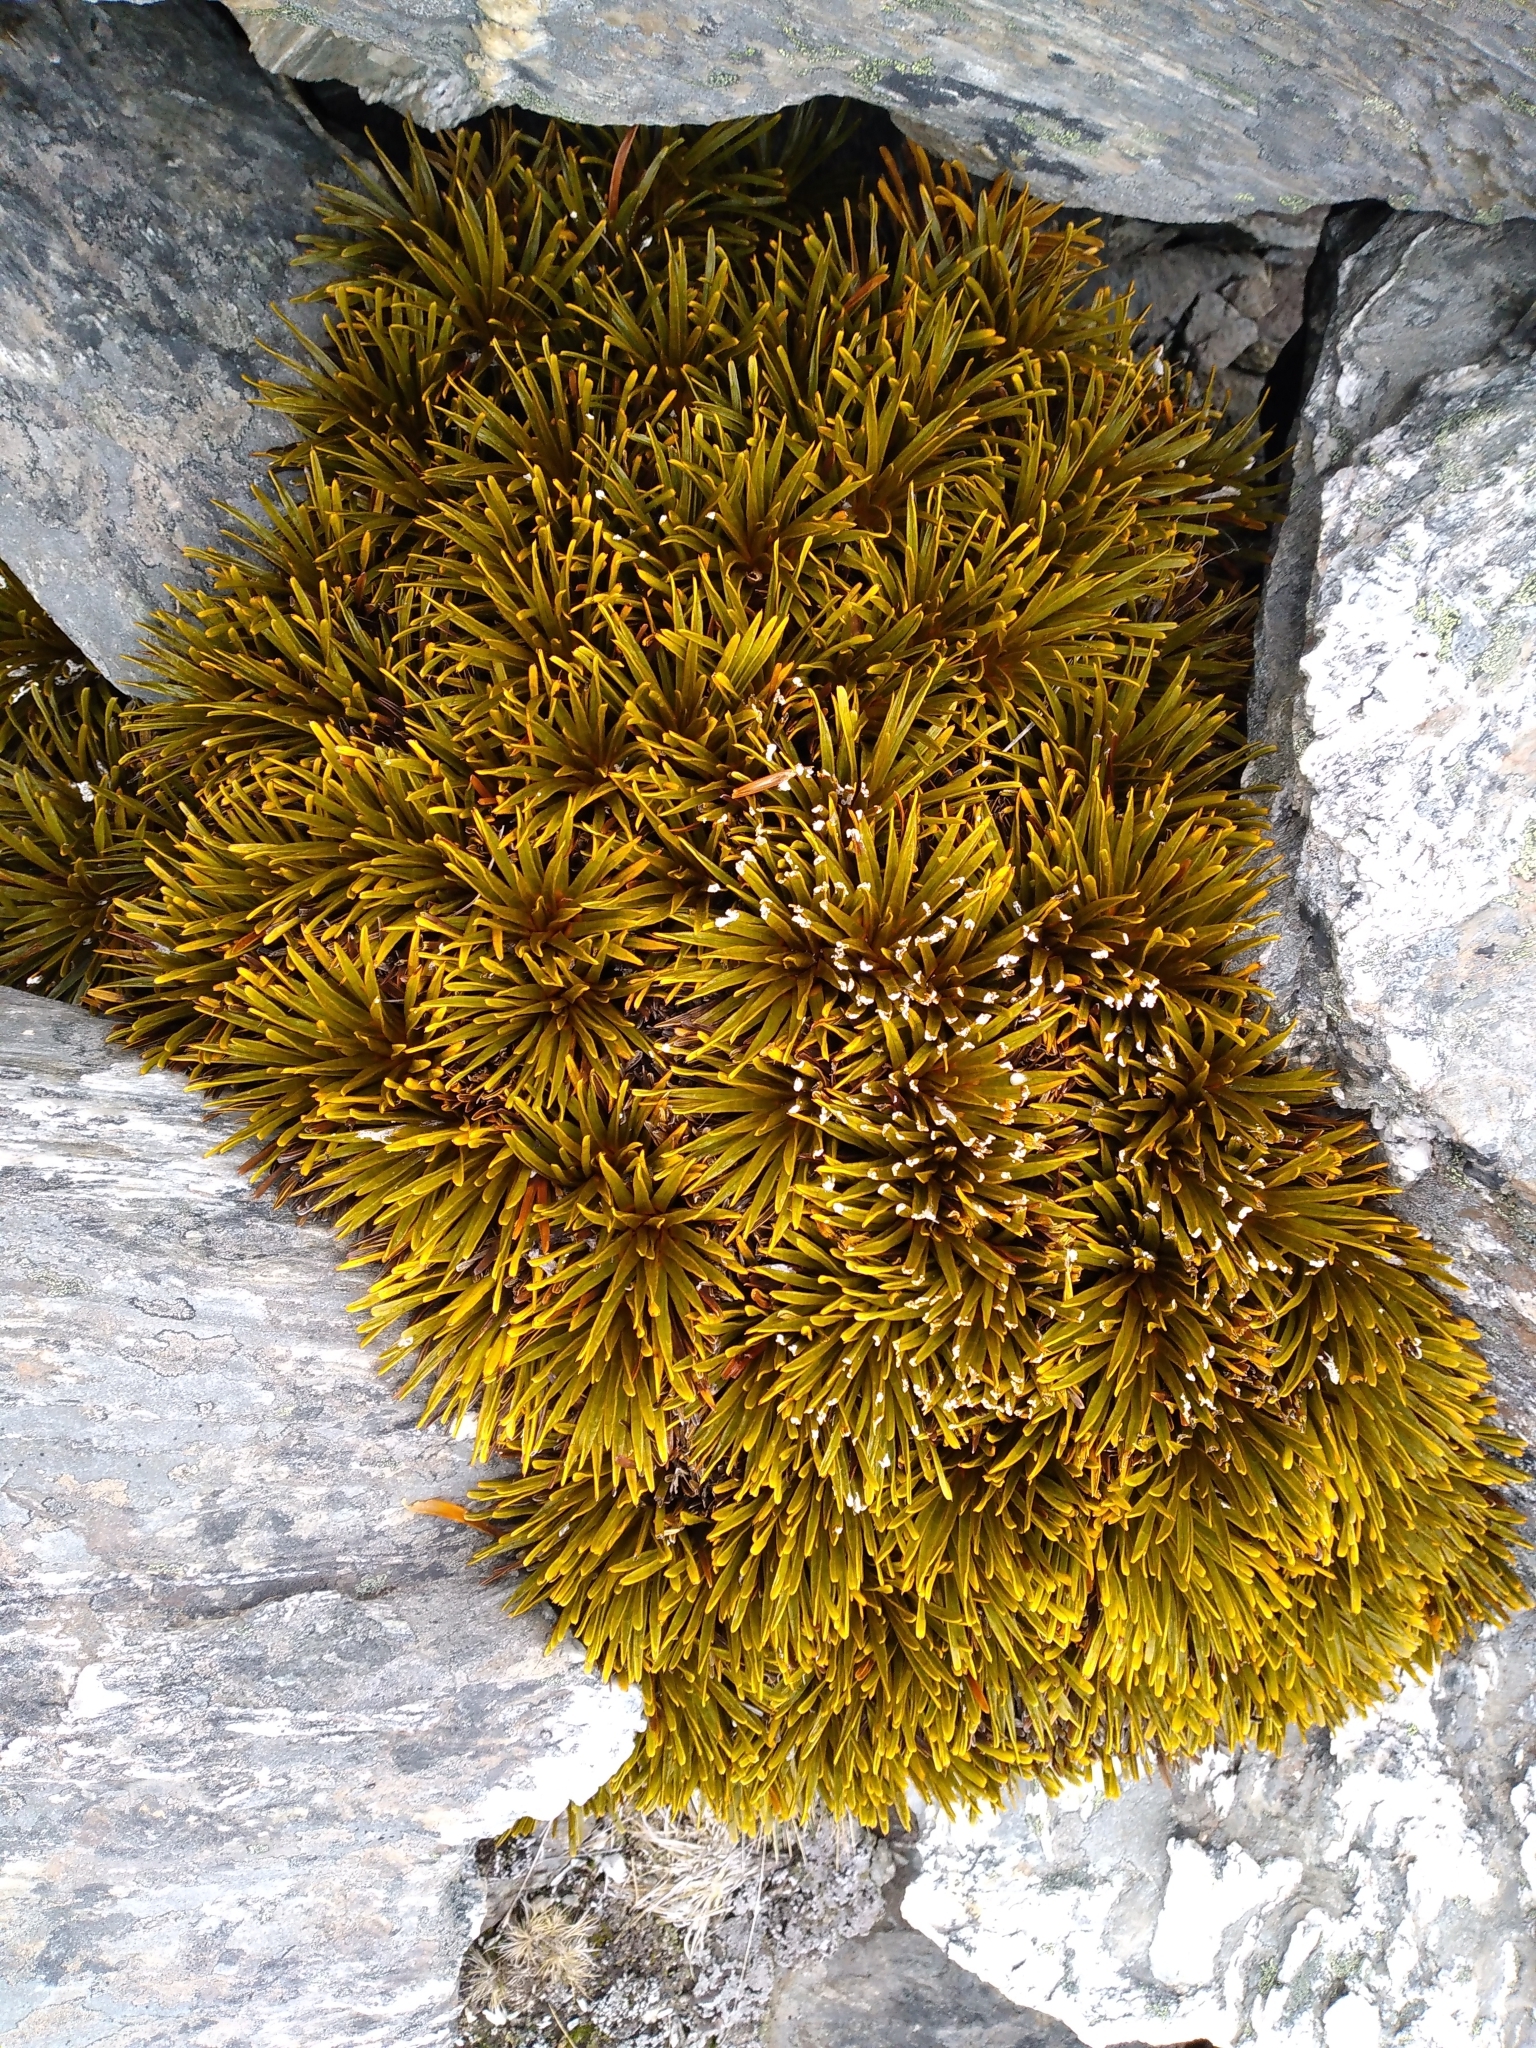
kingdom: Plantae
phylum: Tracheophyta
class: Magnoliopsida
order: Apiales
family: Apiaceae
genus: Aciphylla
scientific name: Aciphylla simplex
